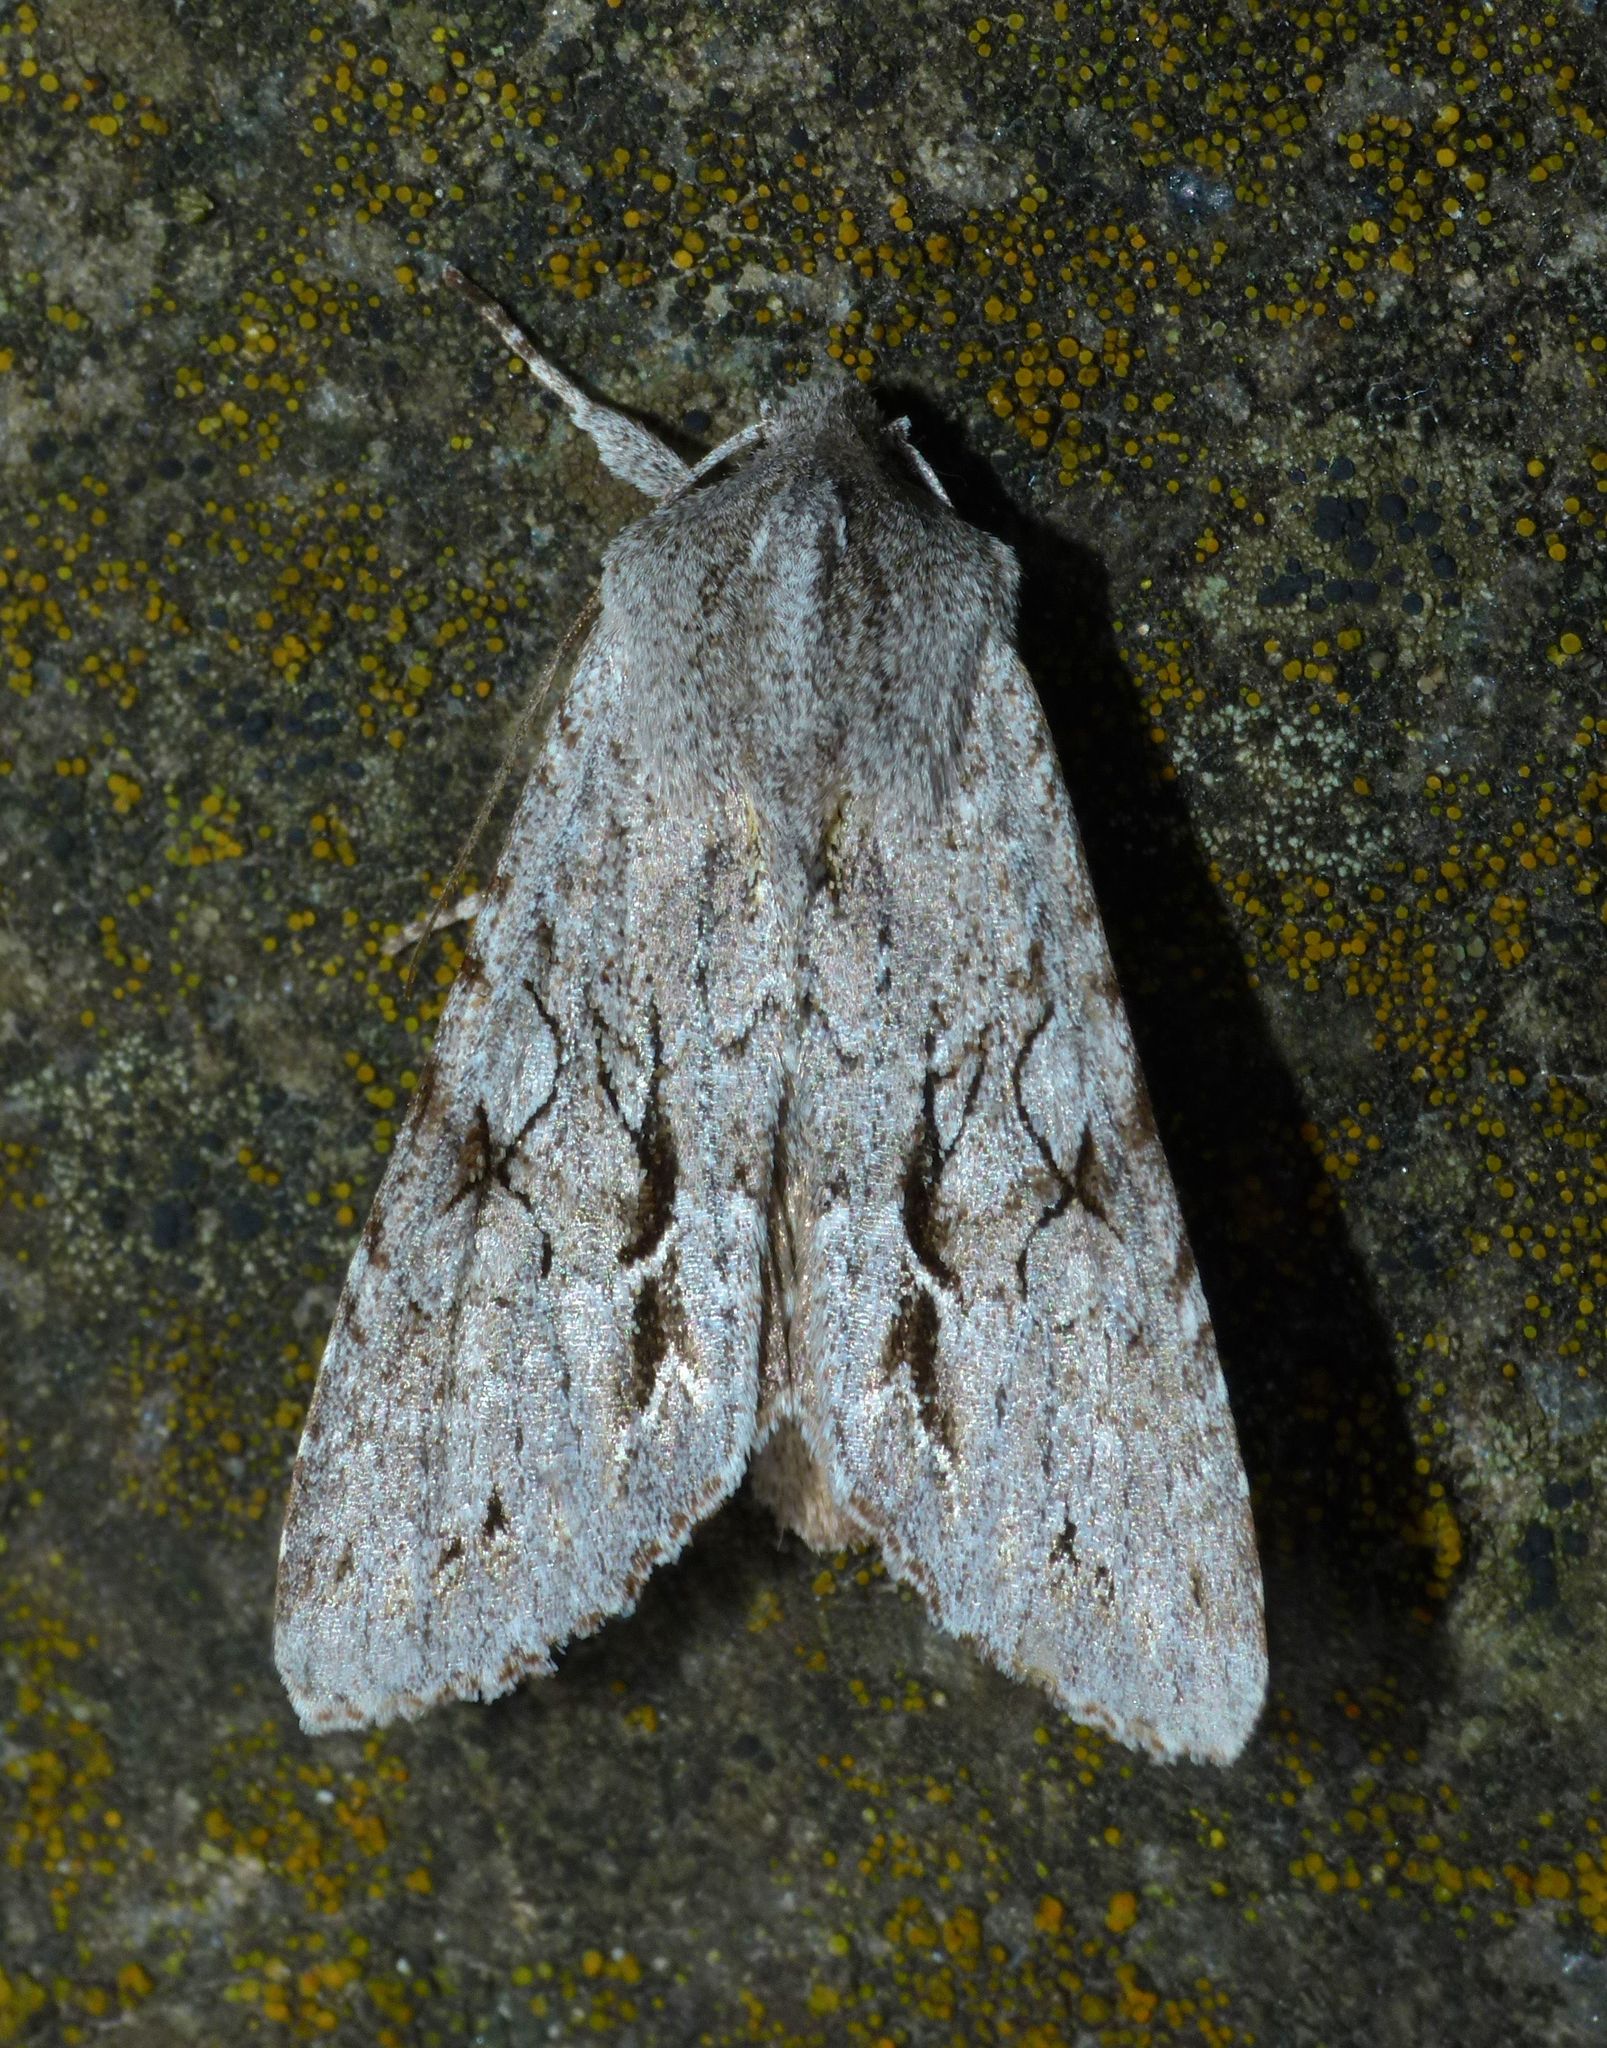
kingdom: Animalia
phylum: Arthropoda
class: Insecta
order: Lepidoptera
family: Noctuidae
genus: Ichneutica
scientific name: Ichneutica
